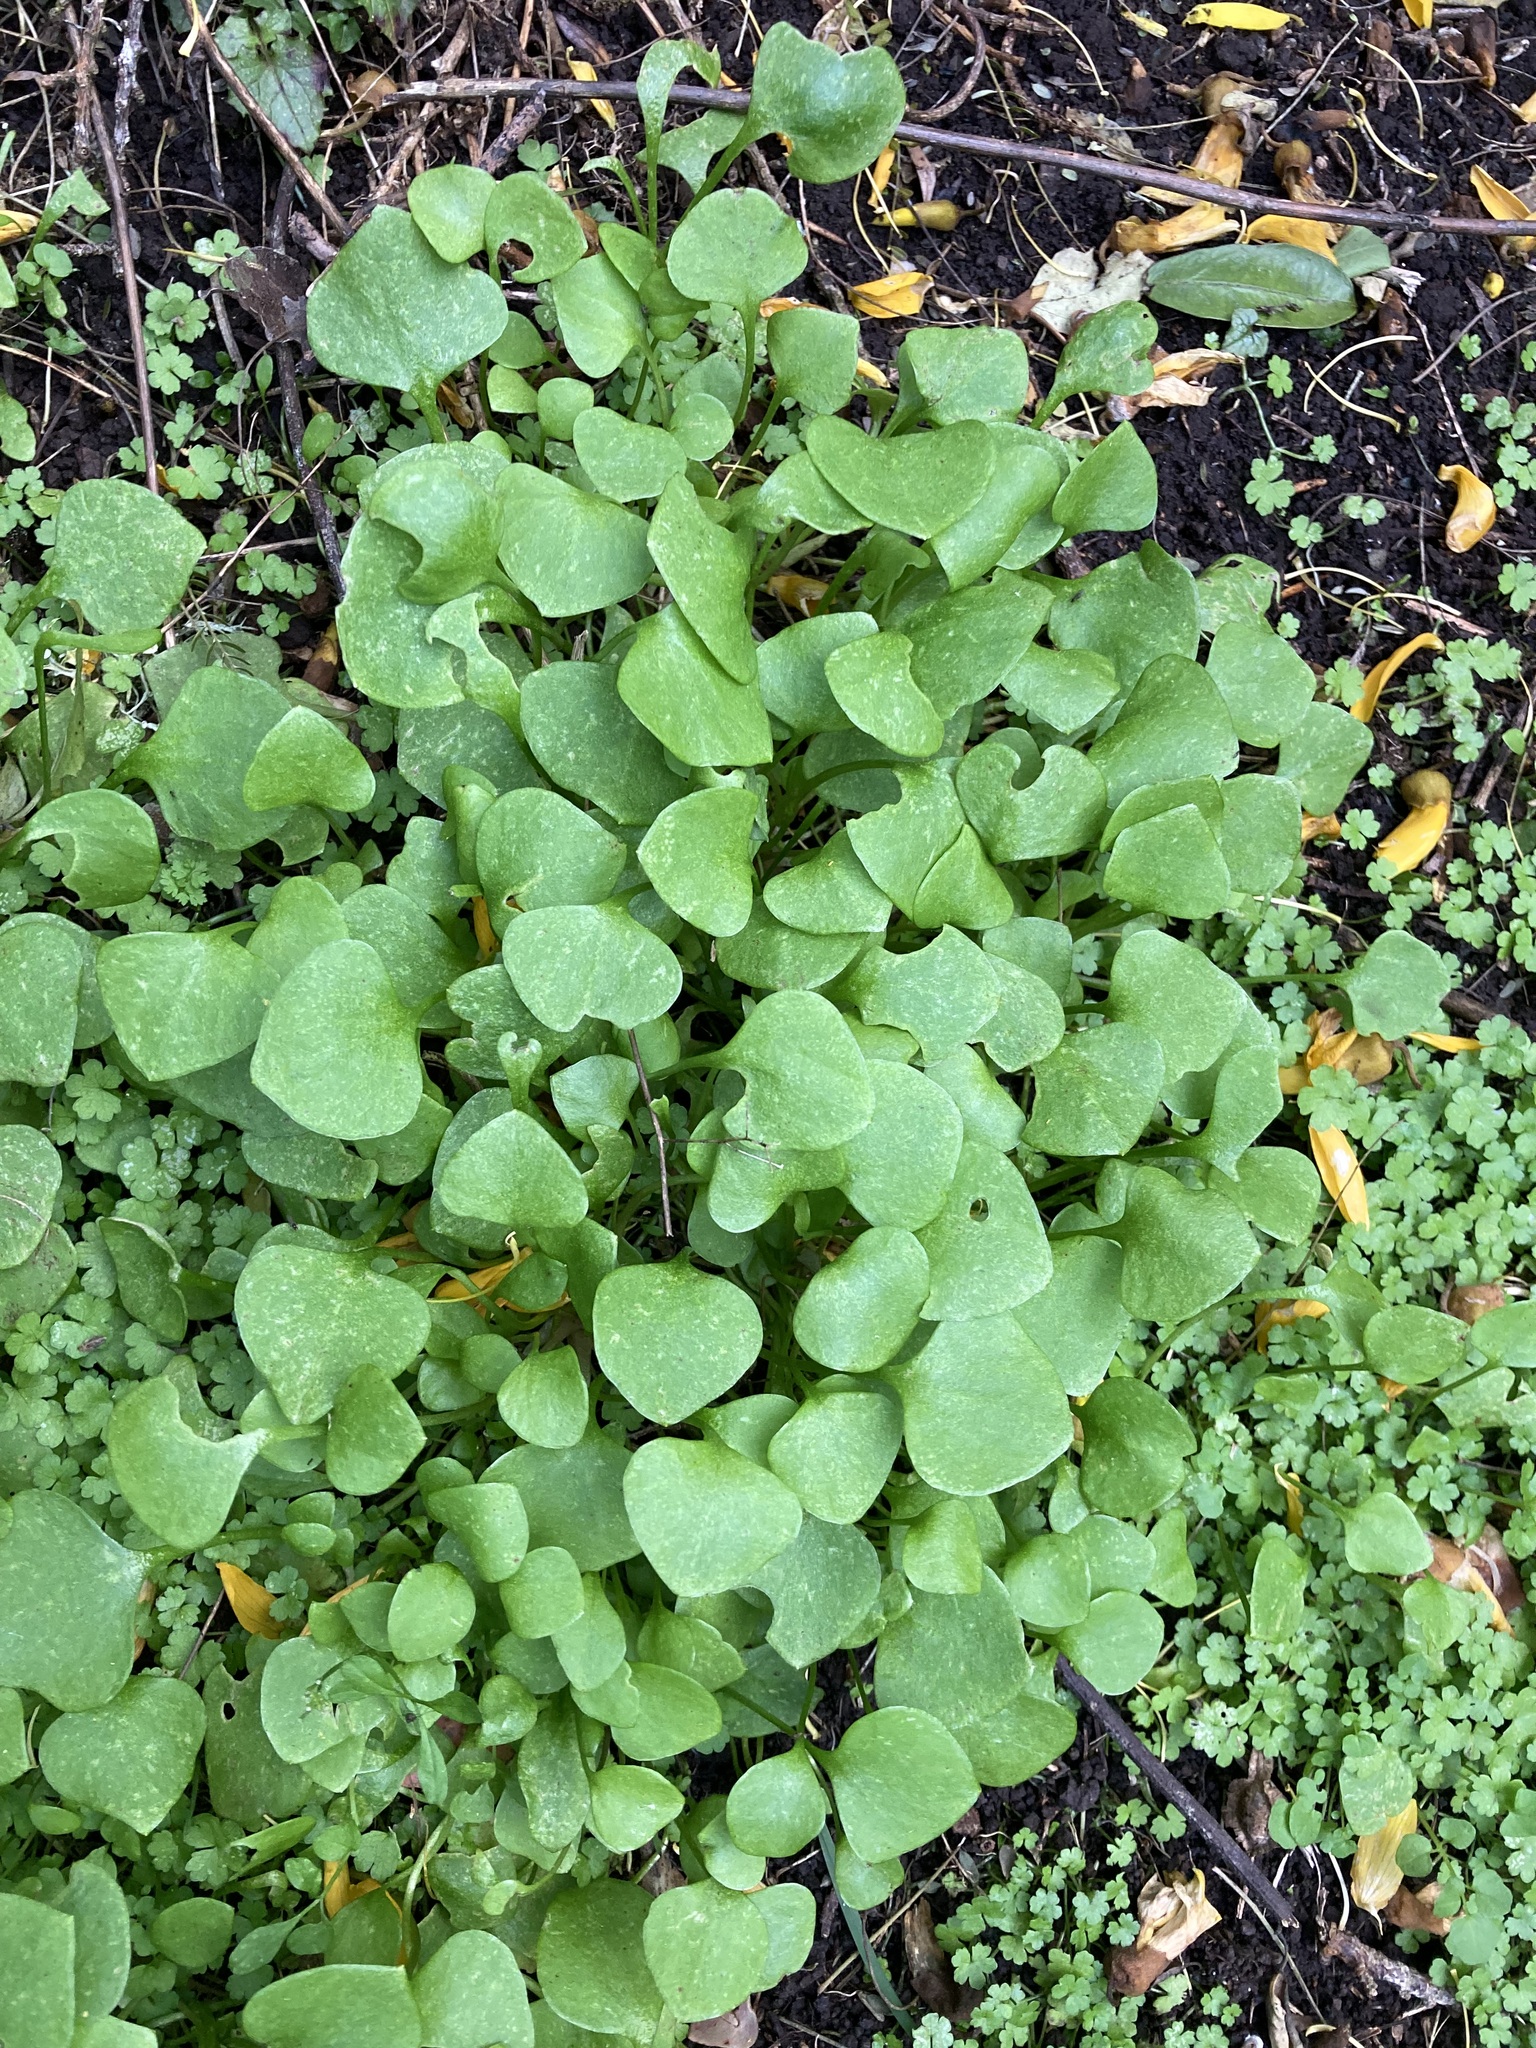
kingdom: Plantae
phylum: Tracheophyta
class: Magnoliopsida
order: Caryophyllales
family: Montiaceae
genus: Claytonia
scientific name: Claytonia perfoliata
